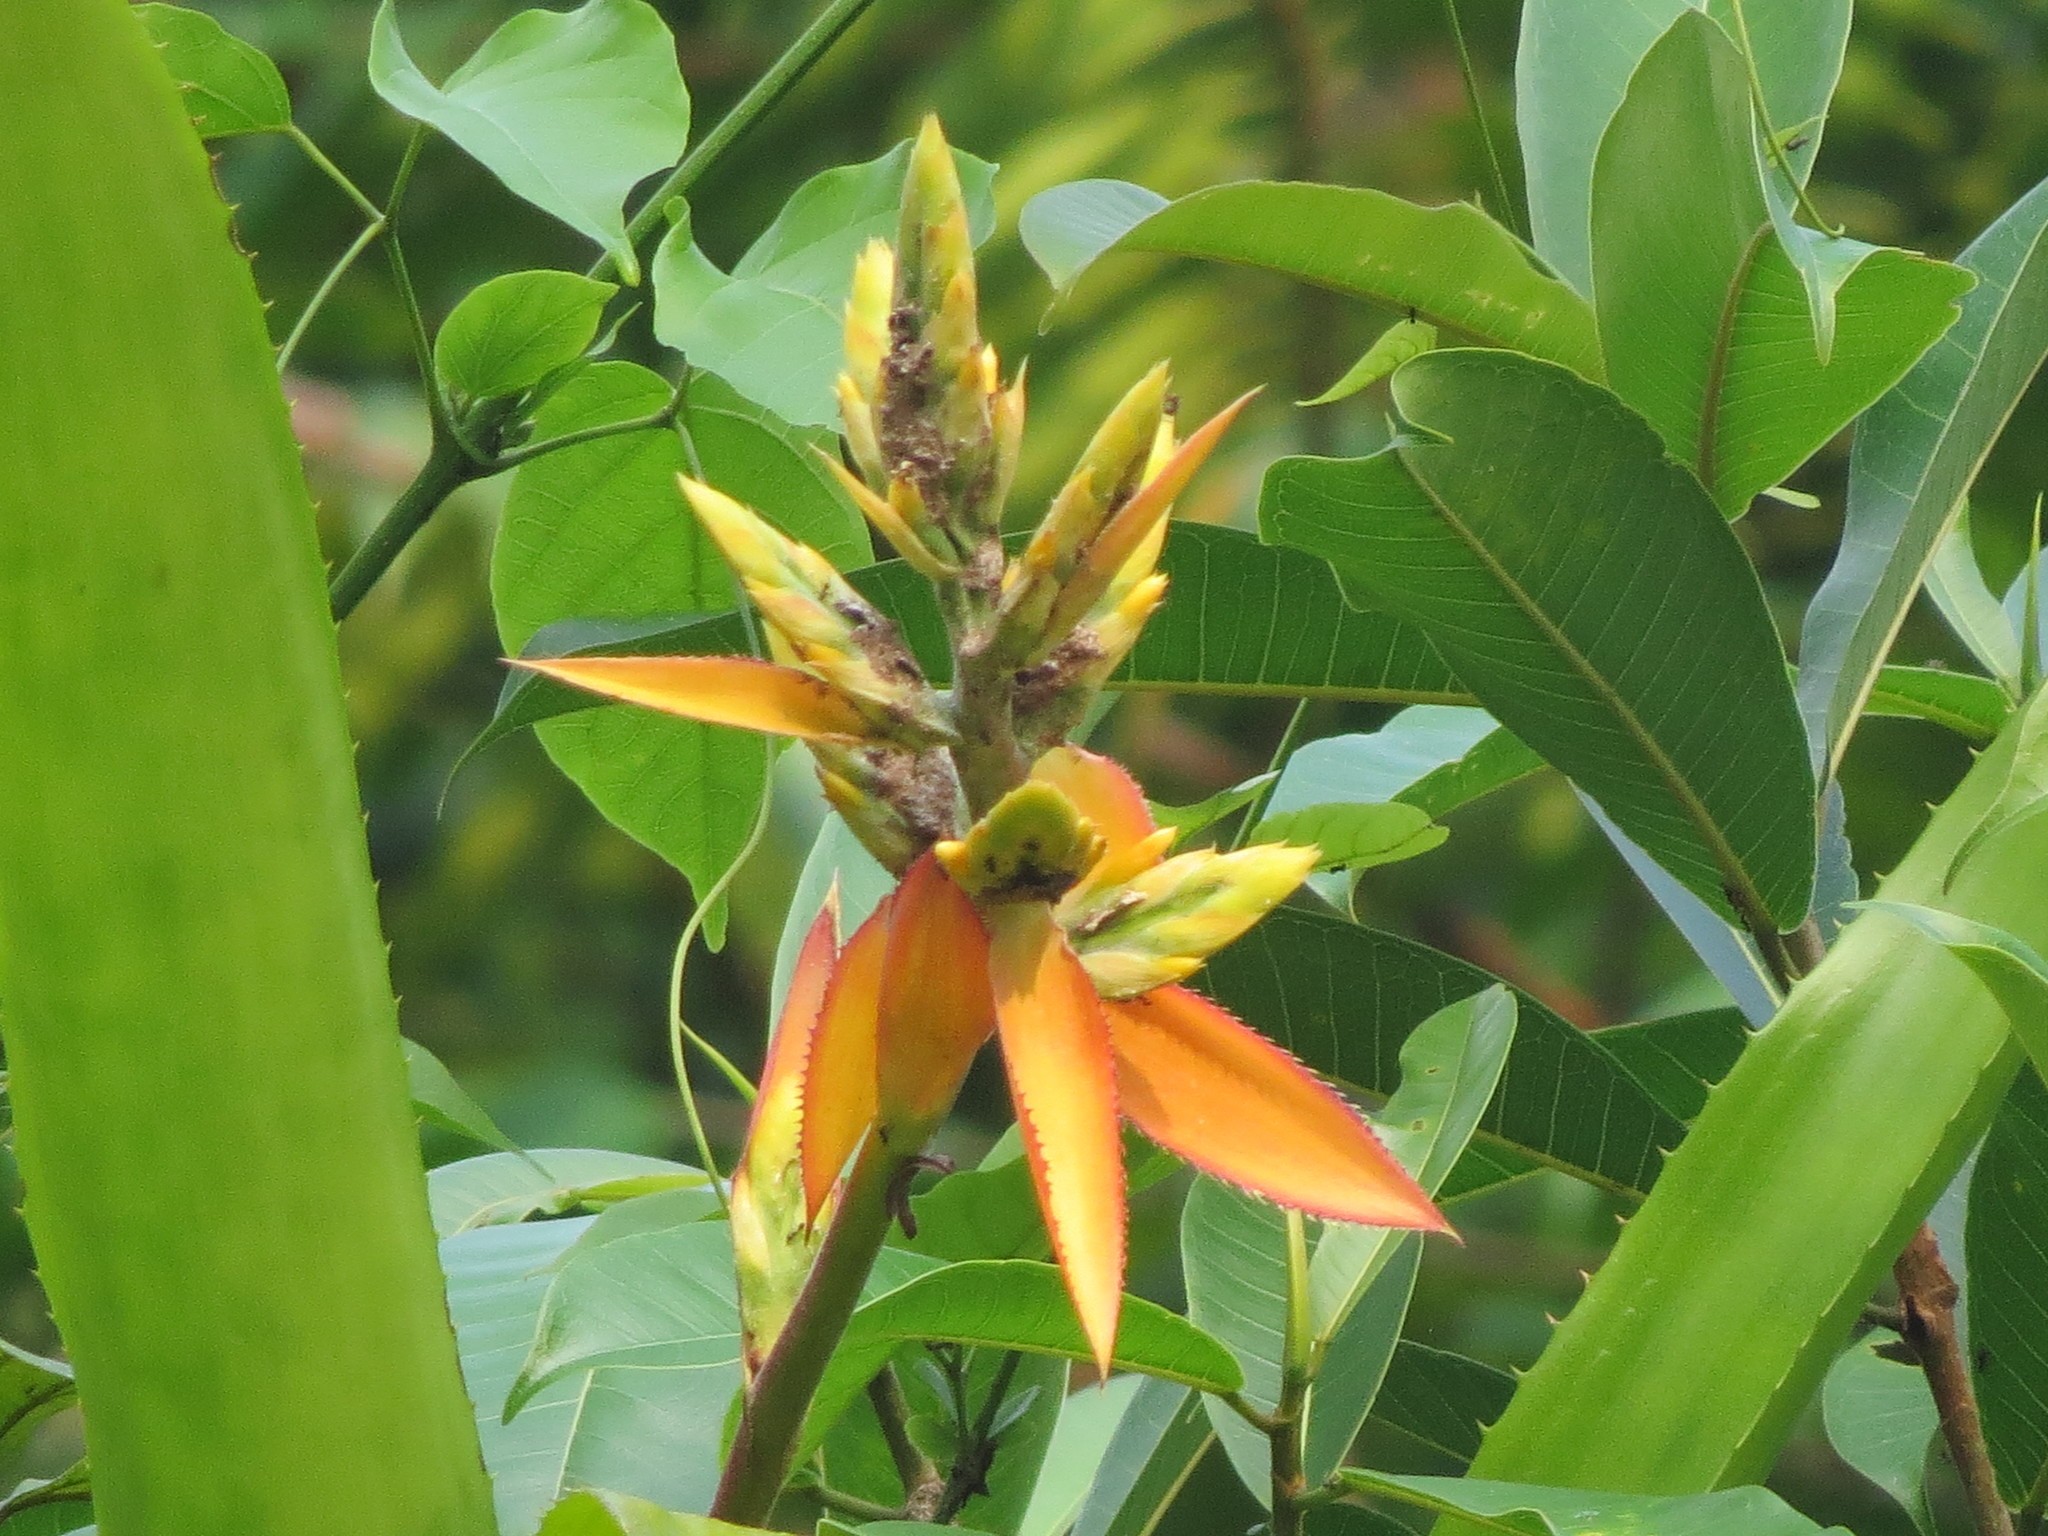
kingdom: Plantae
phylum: Tracheophyta
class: Liliopsida
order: Poales
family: Bromeliaceae
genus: Aechmea
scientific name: Aechmea tillandsioides
